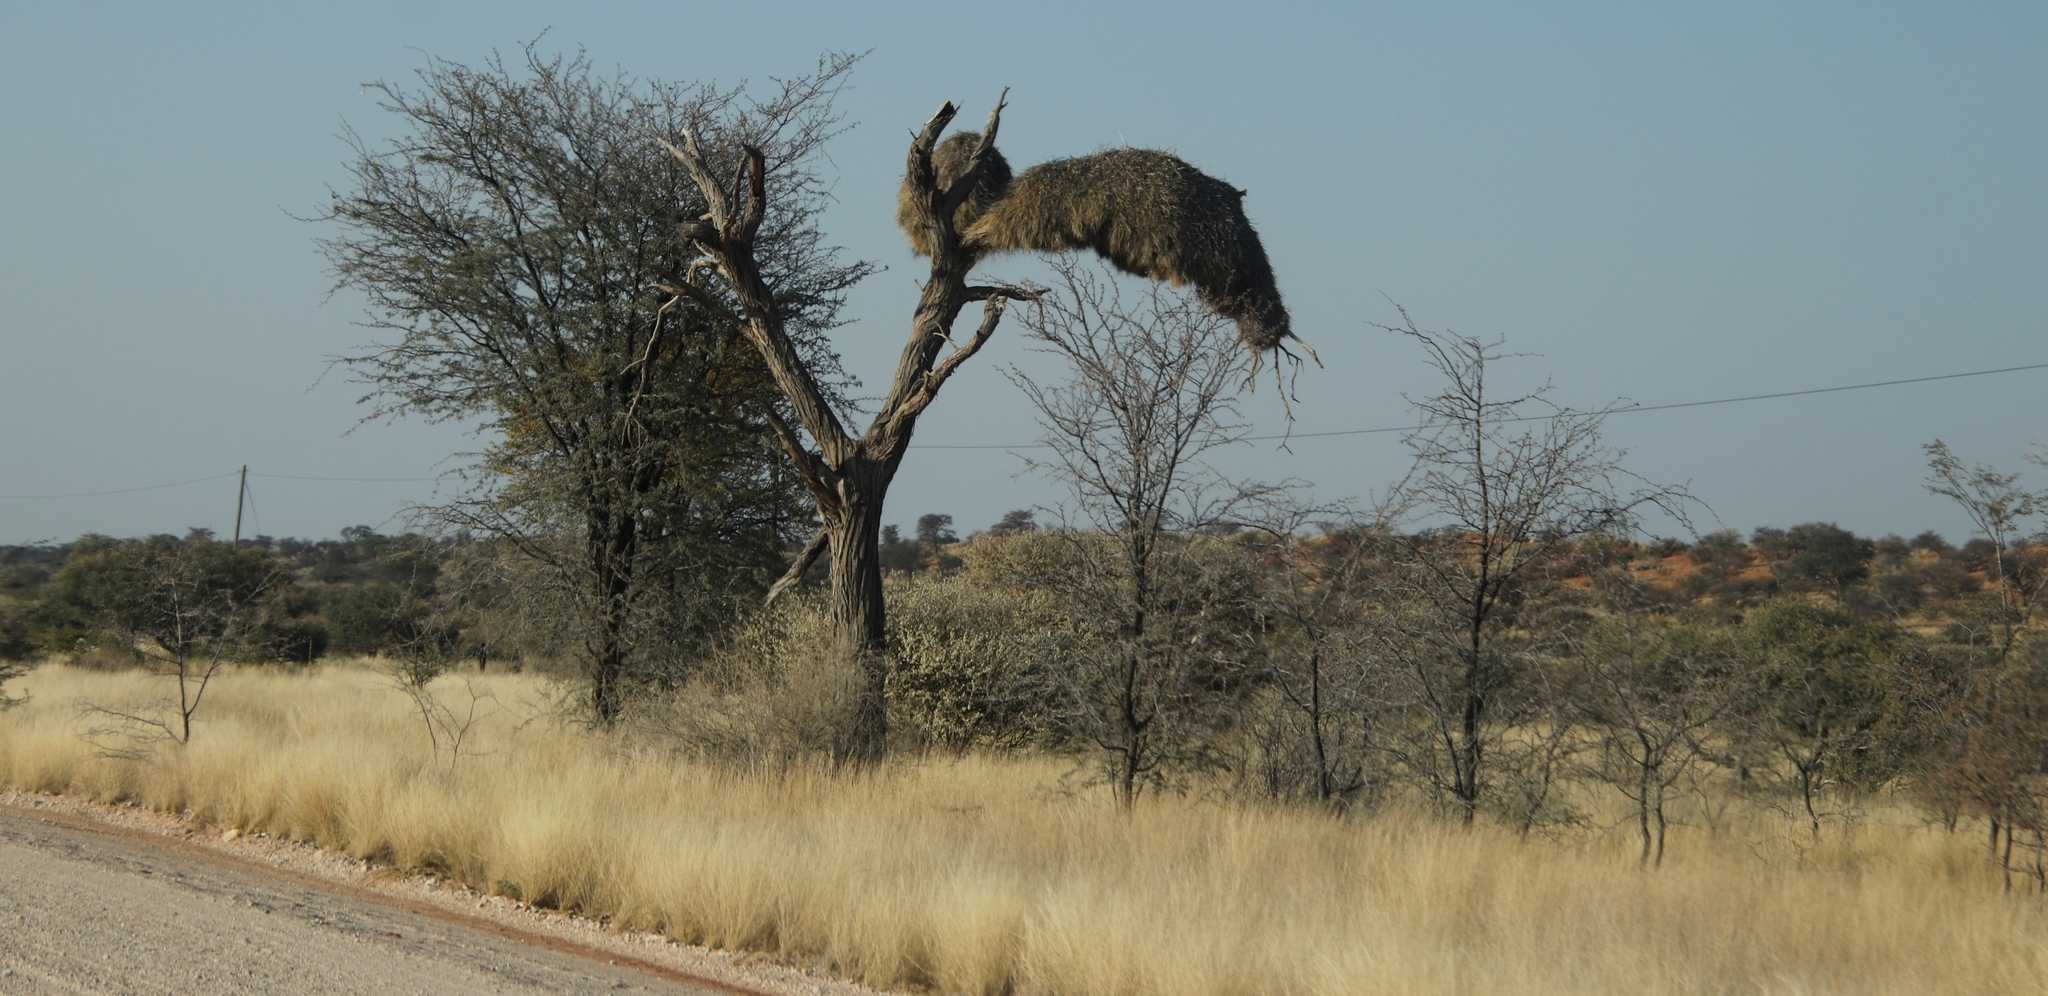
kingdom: Animalia
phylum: Chordata
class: Aves
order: Passeriformes
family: Passeridae
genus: Philetairus
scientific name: Philetairus socius
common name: Sociable weaver
